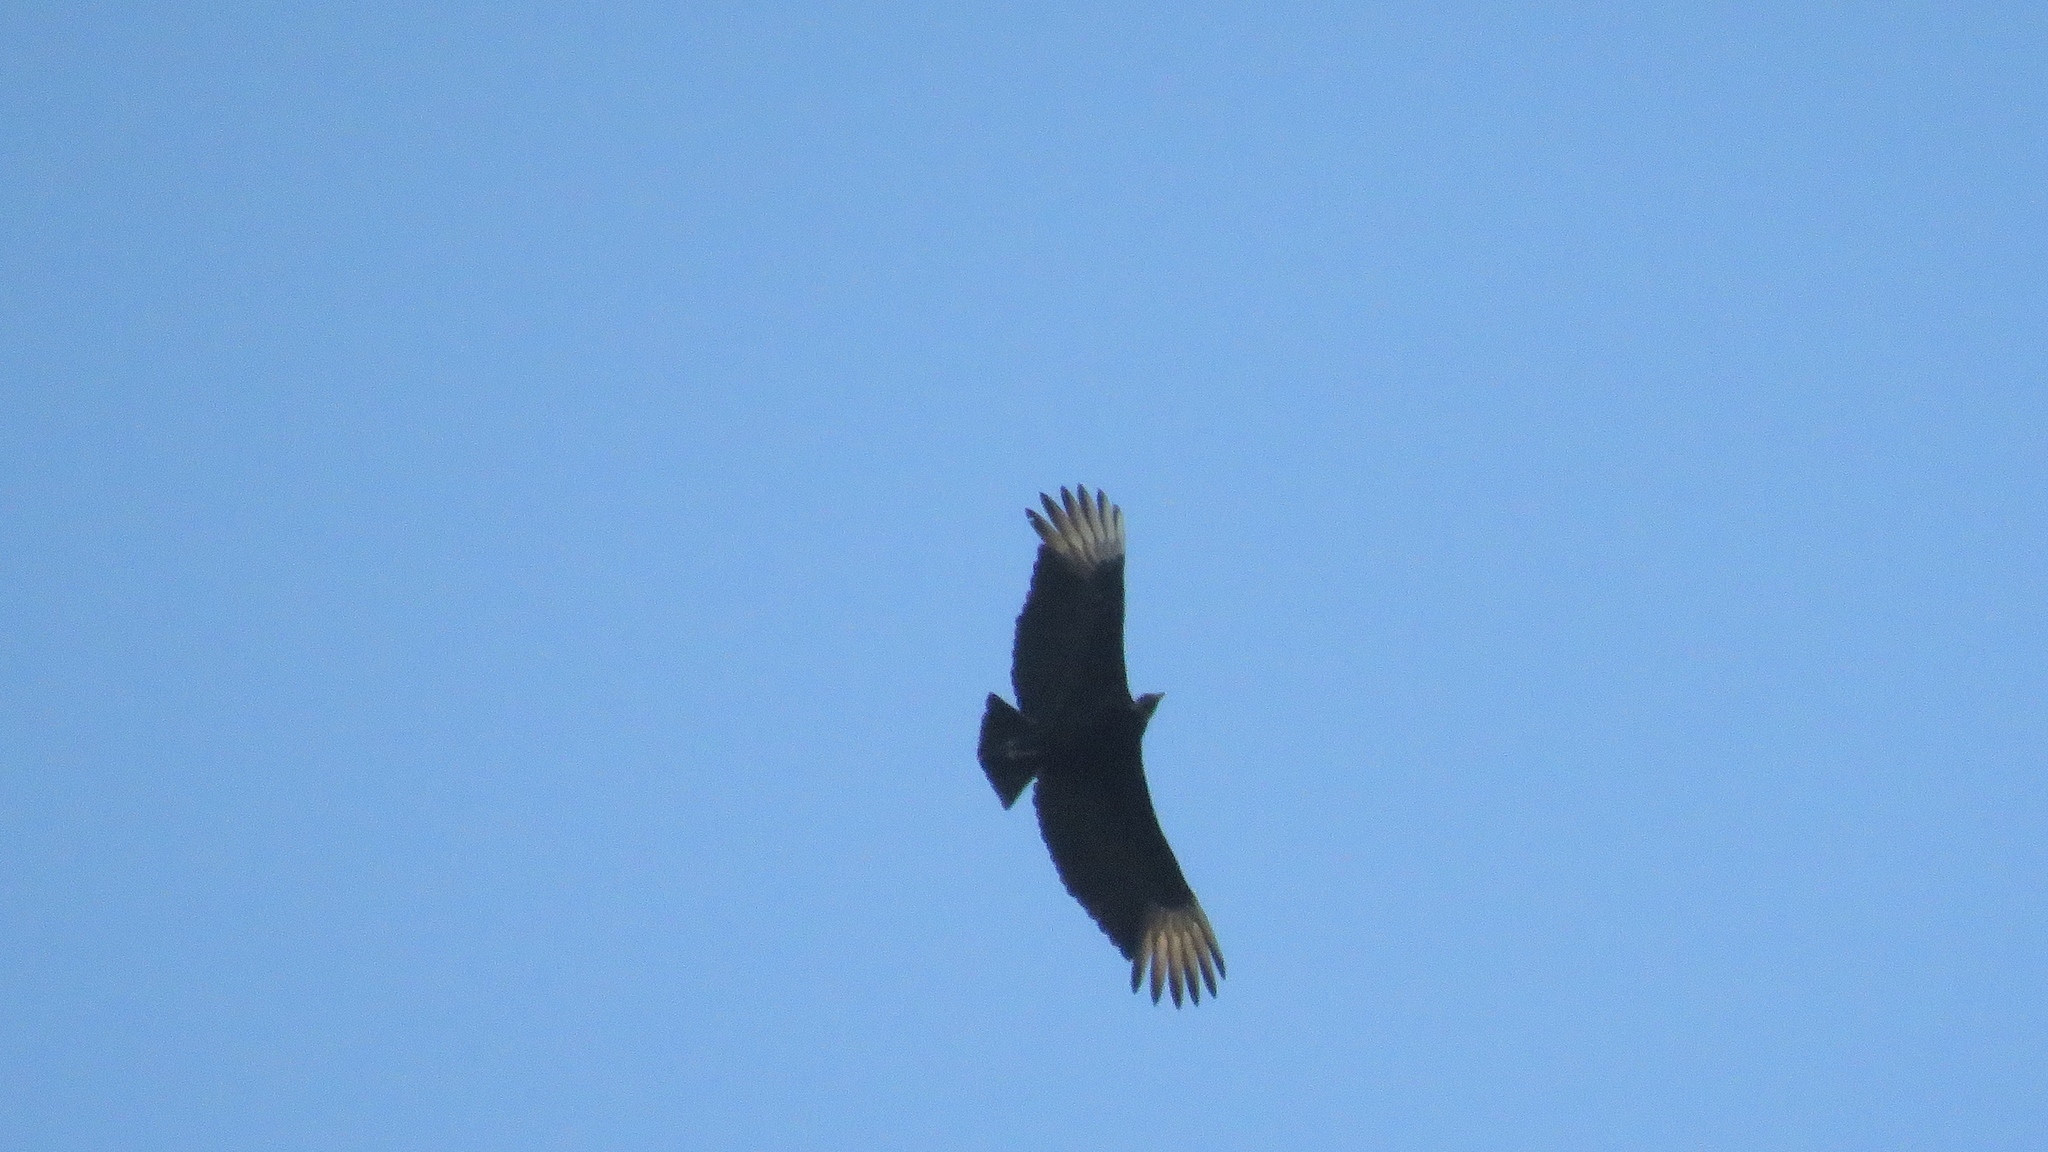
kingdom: Animalia
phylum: Chordata
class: Aves
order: Accipitriformes
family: Cathartidae
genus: Coragyps
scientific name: Coragyps atratus
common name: Black vulture
